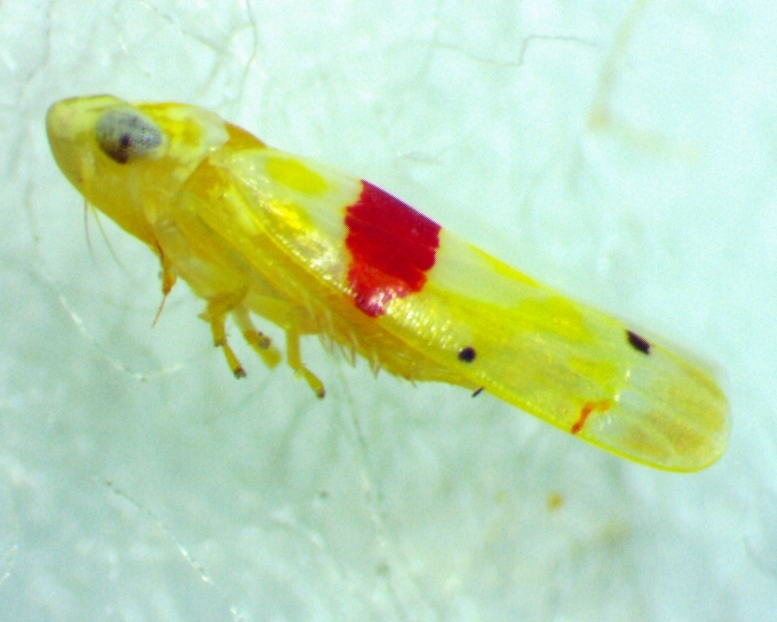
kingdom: Animalia
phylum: Arthropoda
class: Insecta
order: Hemiptera
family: Cicadellidae
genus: Eratoneura
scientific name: Eratoneura era
